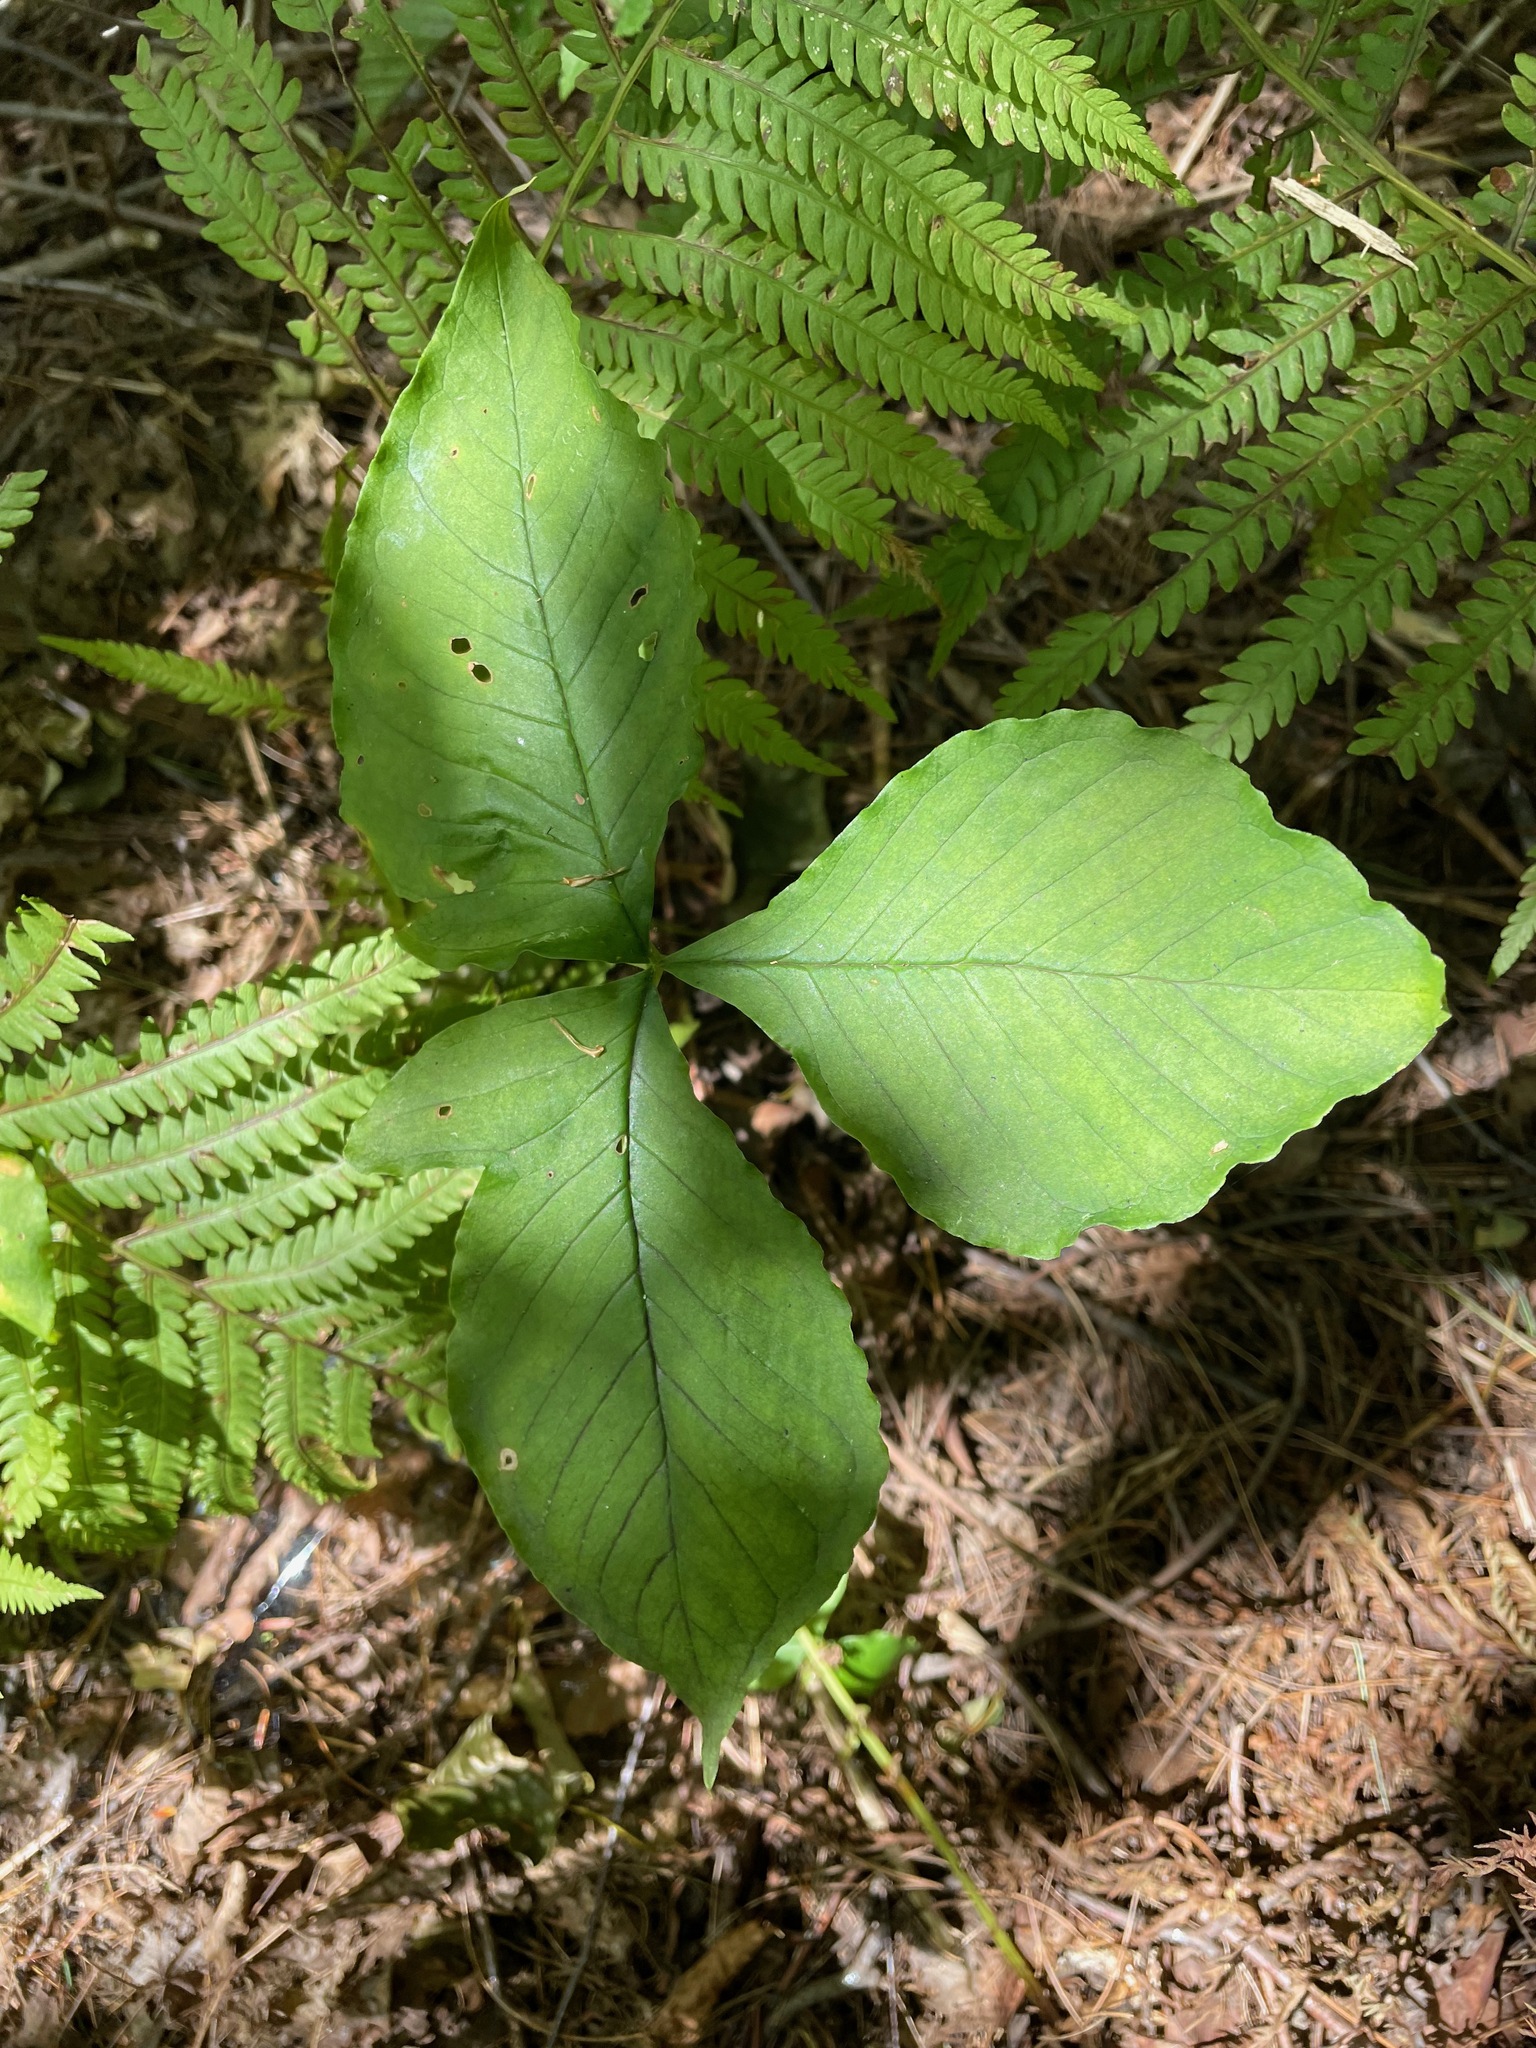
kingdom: Plantae
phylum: Tracheophyta
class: Liliopsida
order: Alismatales
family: Araceae
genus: Arisaema
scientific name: Arisaema triphyllum
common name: Jack-in-the-pulpit
